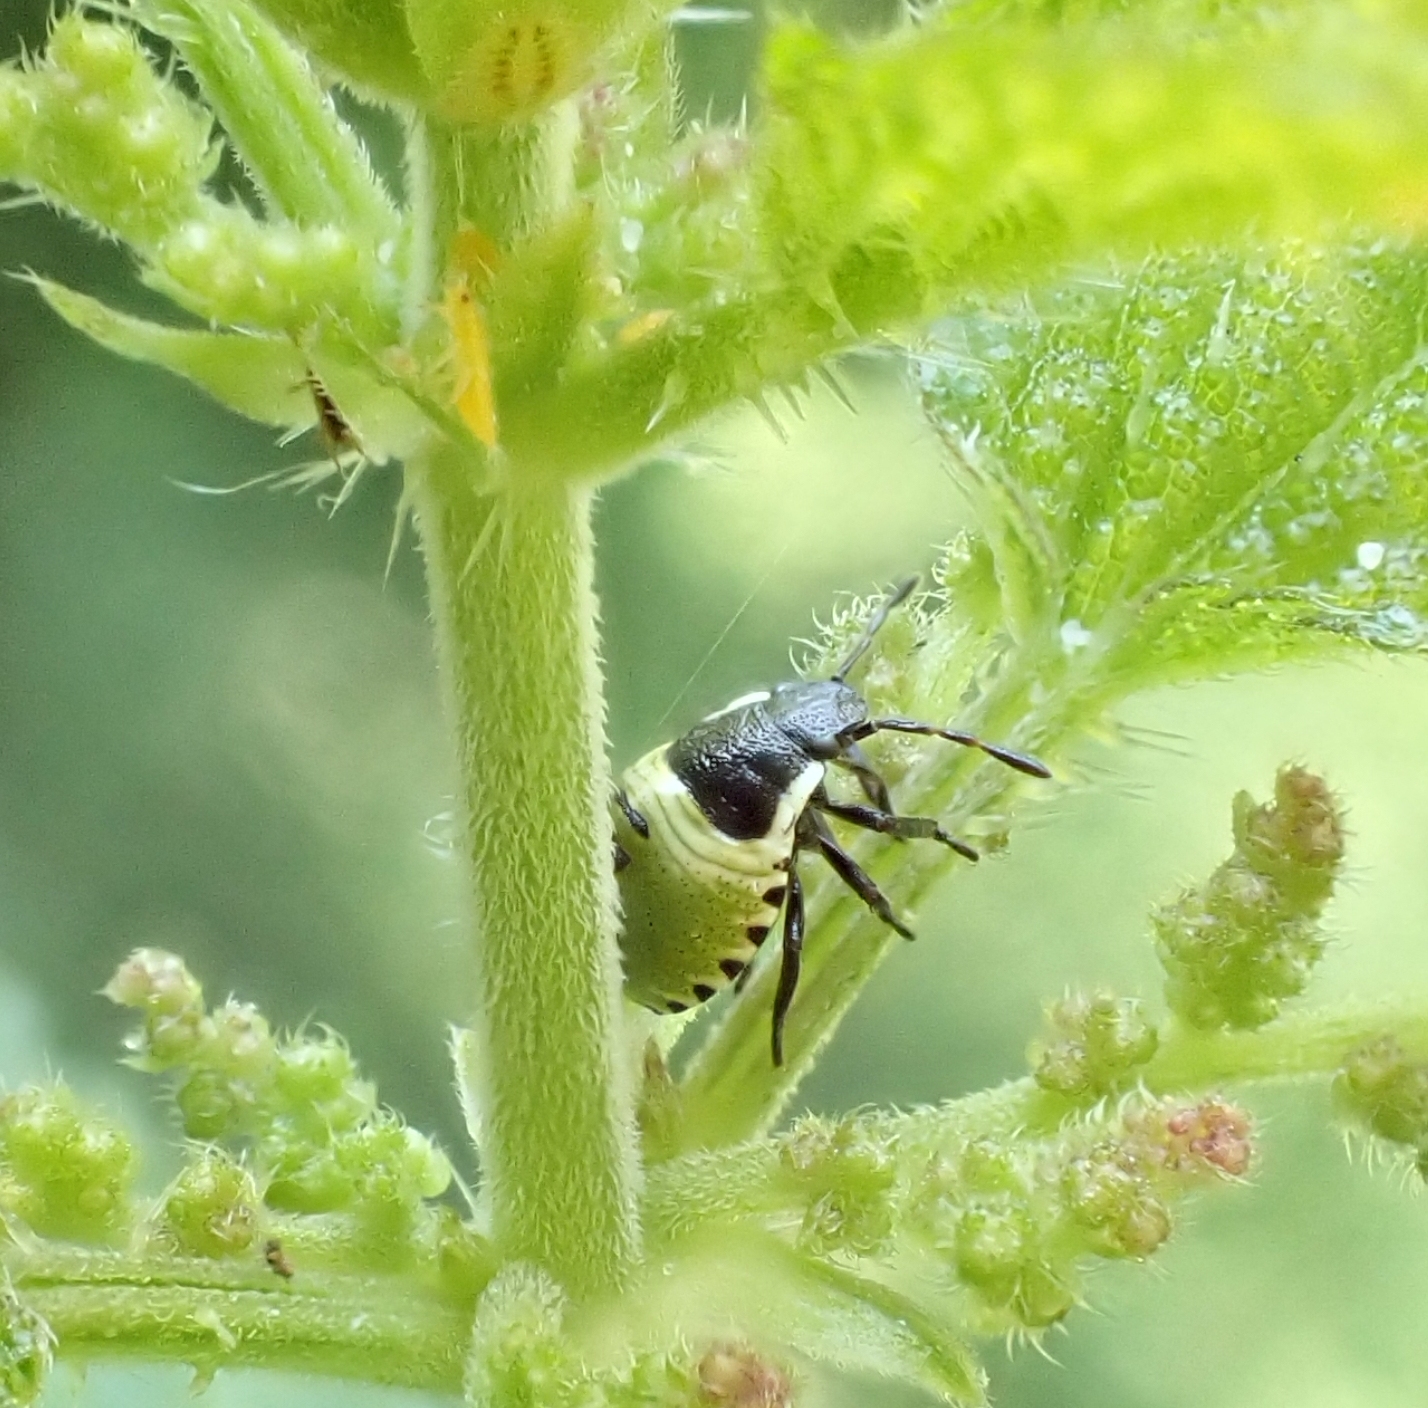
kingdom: Animalia
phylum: Arthropoda
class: Insecta
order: Hemiptera
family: Pentatomidae
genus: Palomena
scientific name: Palomena prasina
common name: Green shieldbug
